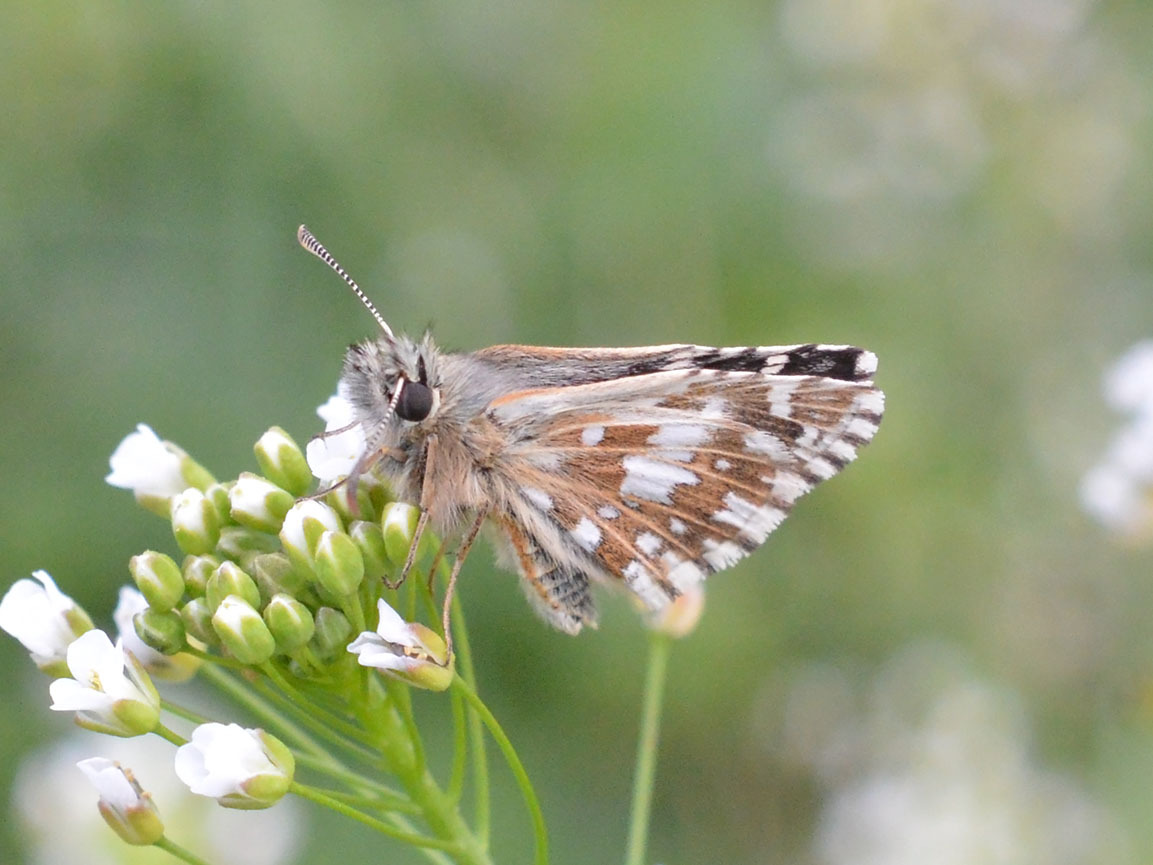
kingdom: Animalia
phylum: Arthropoda
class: Insecta
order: Lepidoptera
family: Hesperiidae
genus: Pyrgus
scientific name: Pyrgus malvae
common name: Grizzled skipper
